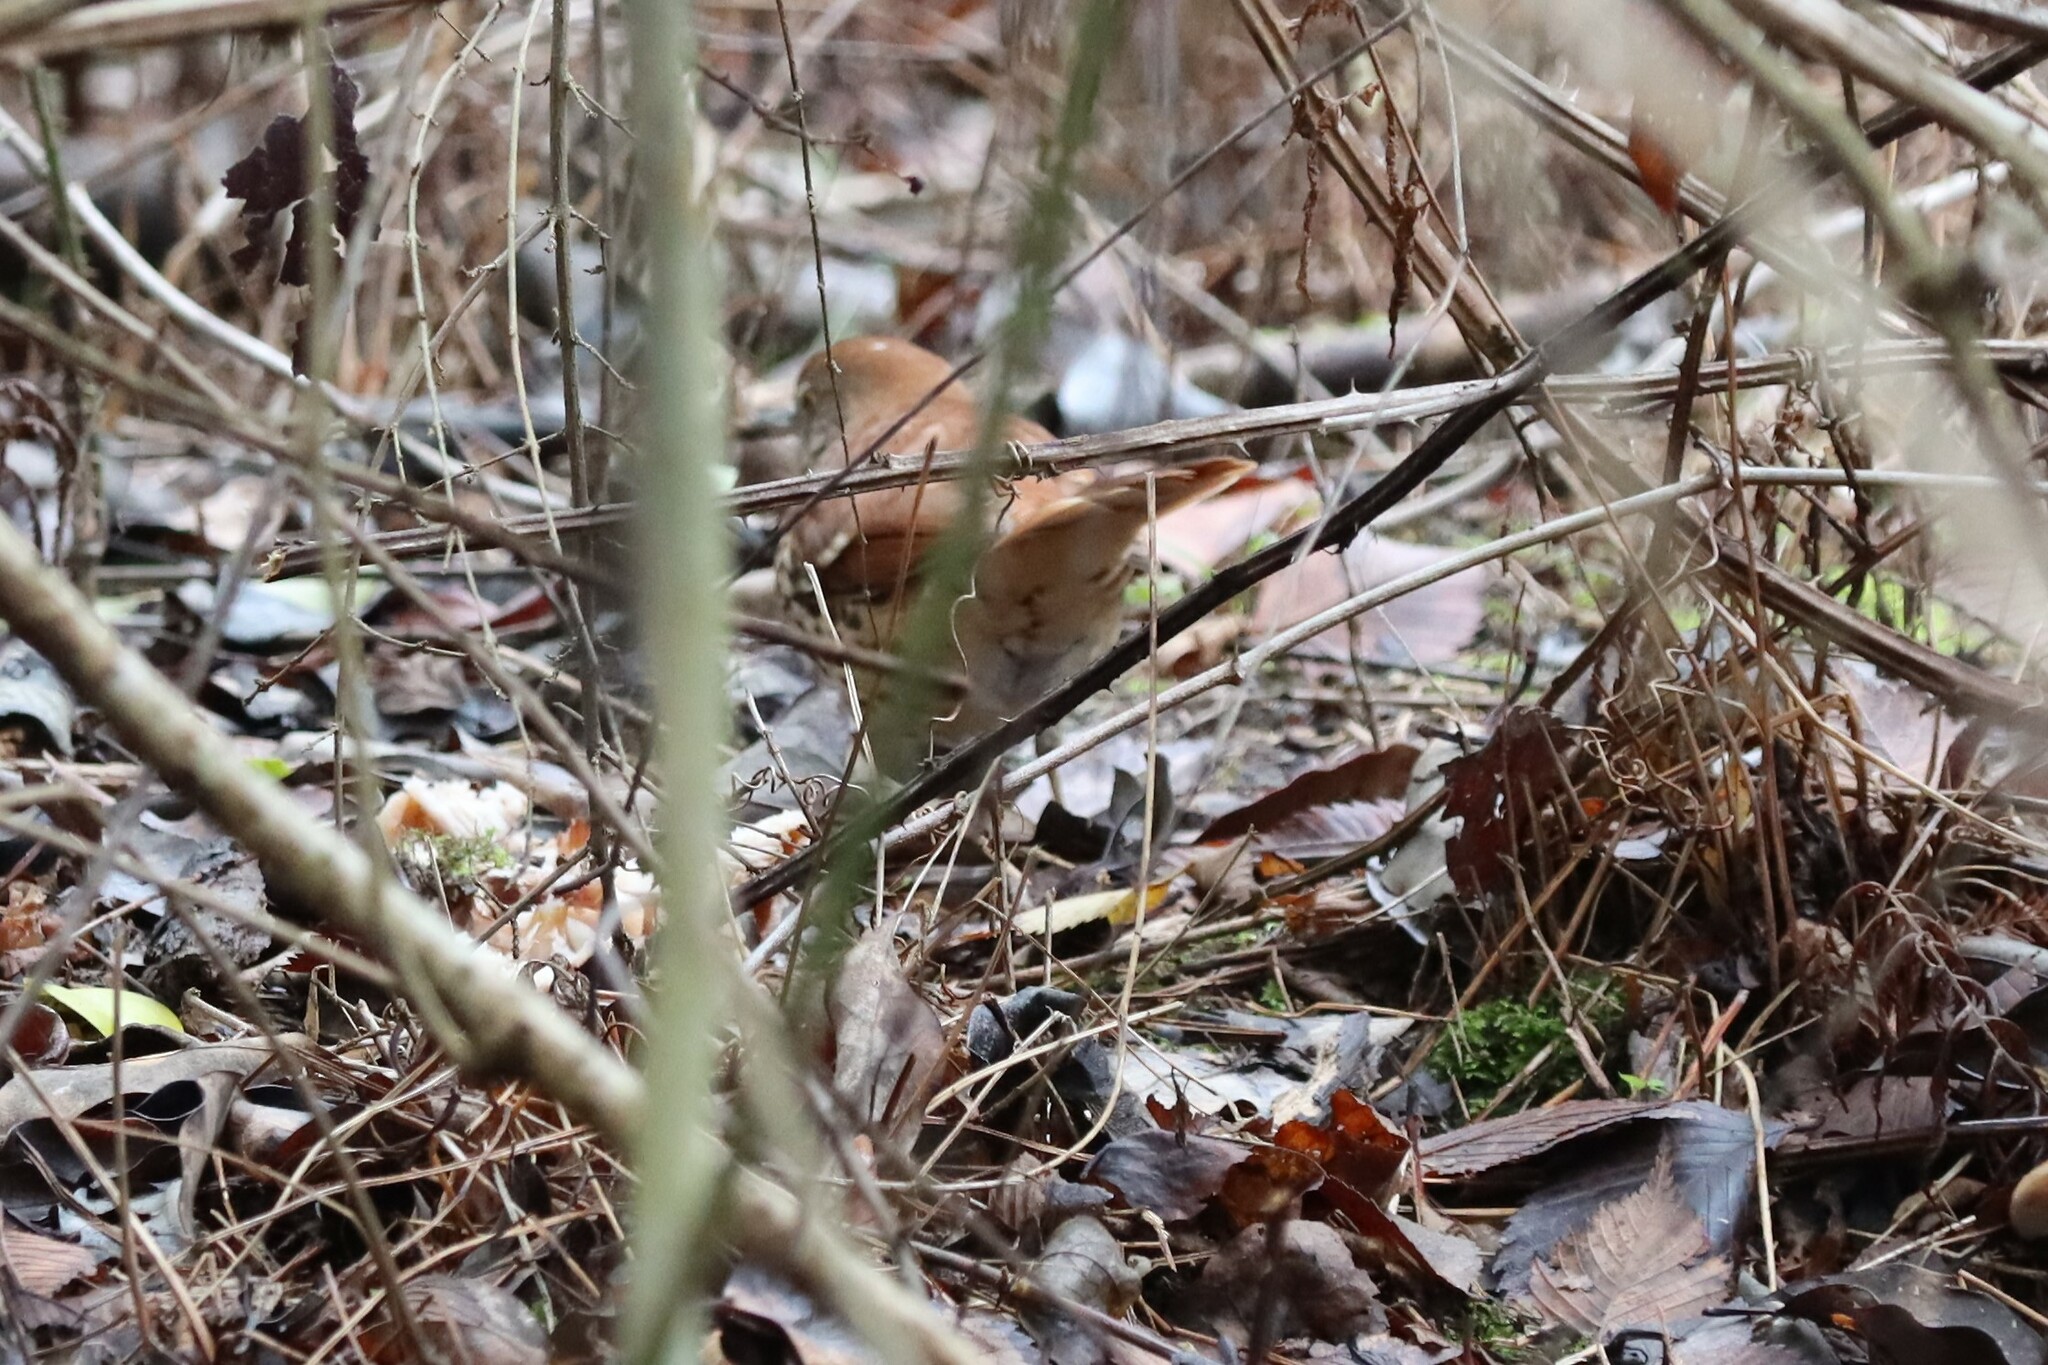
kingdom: Animalia
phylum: Chordata
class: Aves
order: Passeriformes
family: Mimidae
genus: Toxostoma
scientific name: Toxostoma rufum
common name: Brown thrasher
